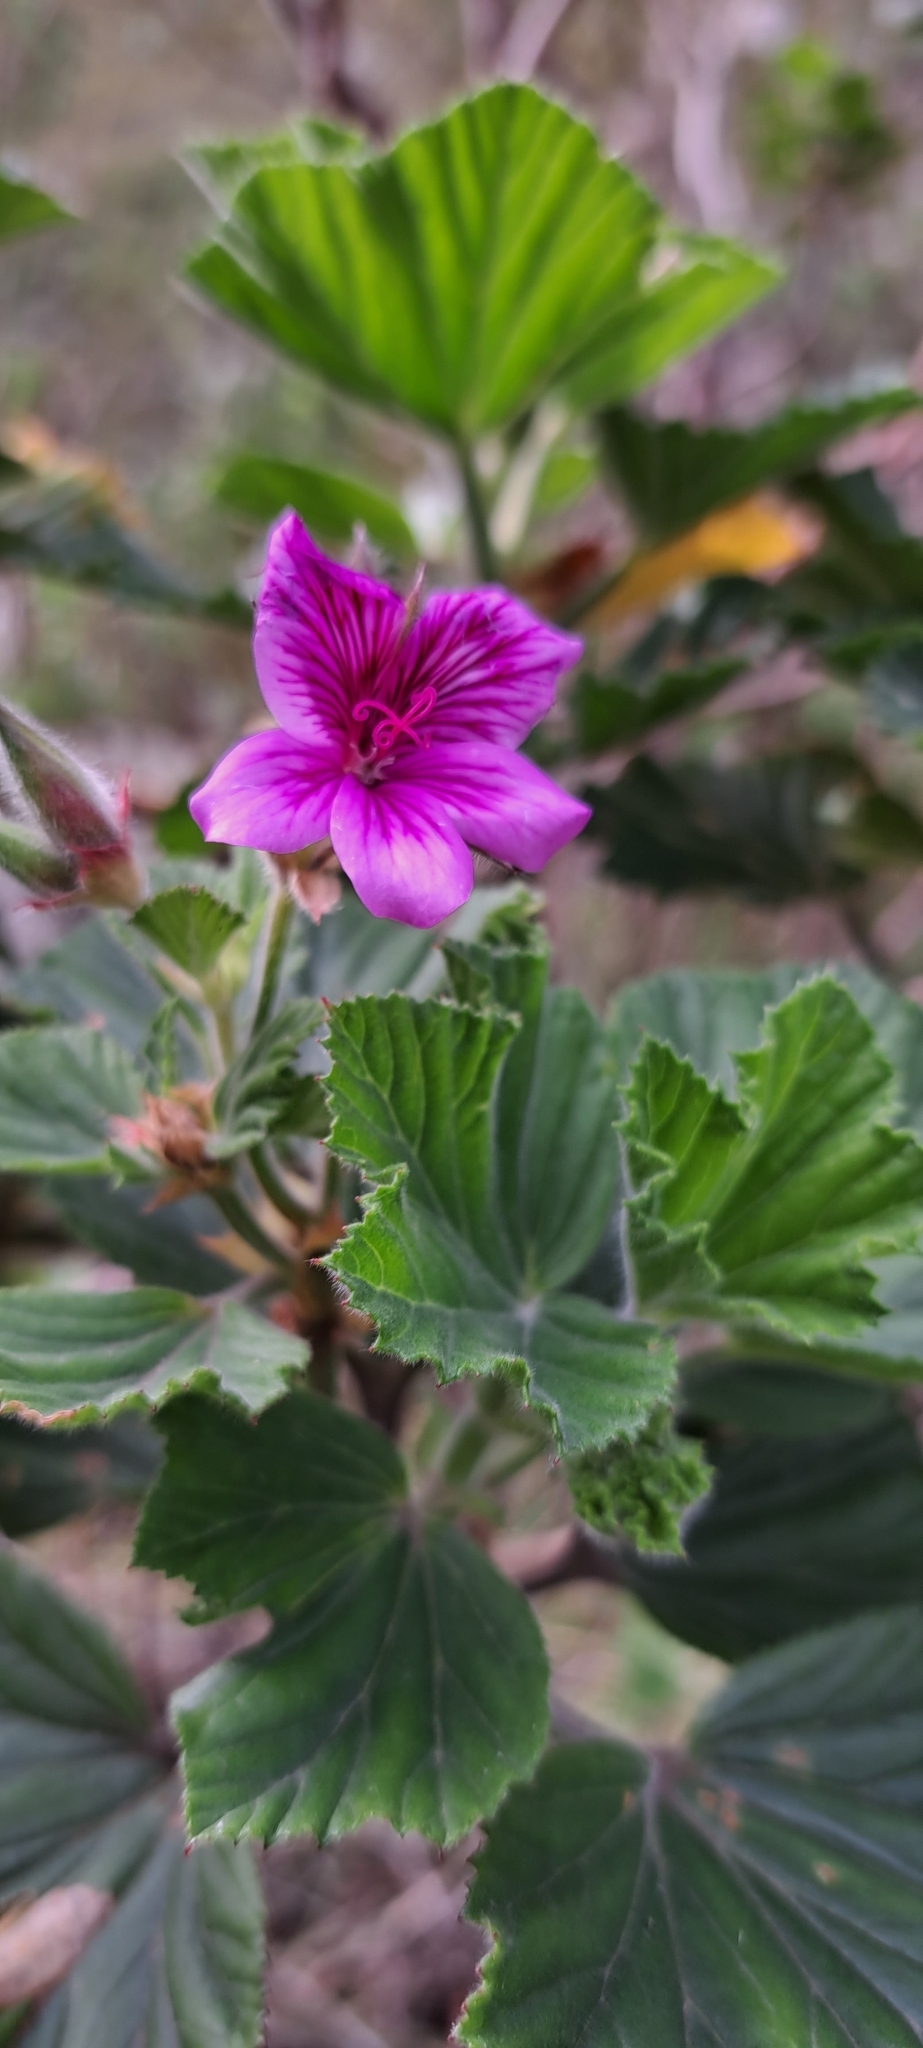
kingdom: Plantae
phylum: Tracheophyta
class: Magnoliopsida
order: Geraniales
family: Geraniaceae
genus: Pelargonium
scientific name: Pelargonium cucullatum
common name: Tree pelargonium
